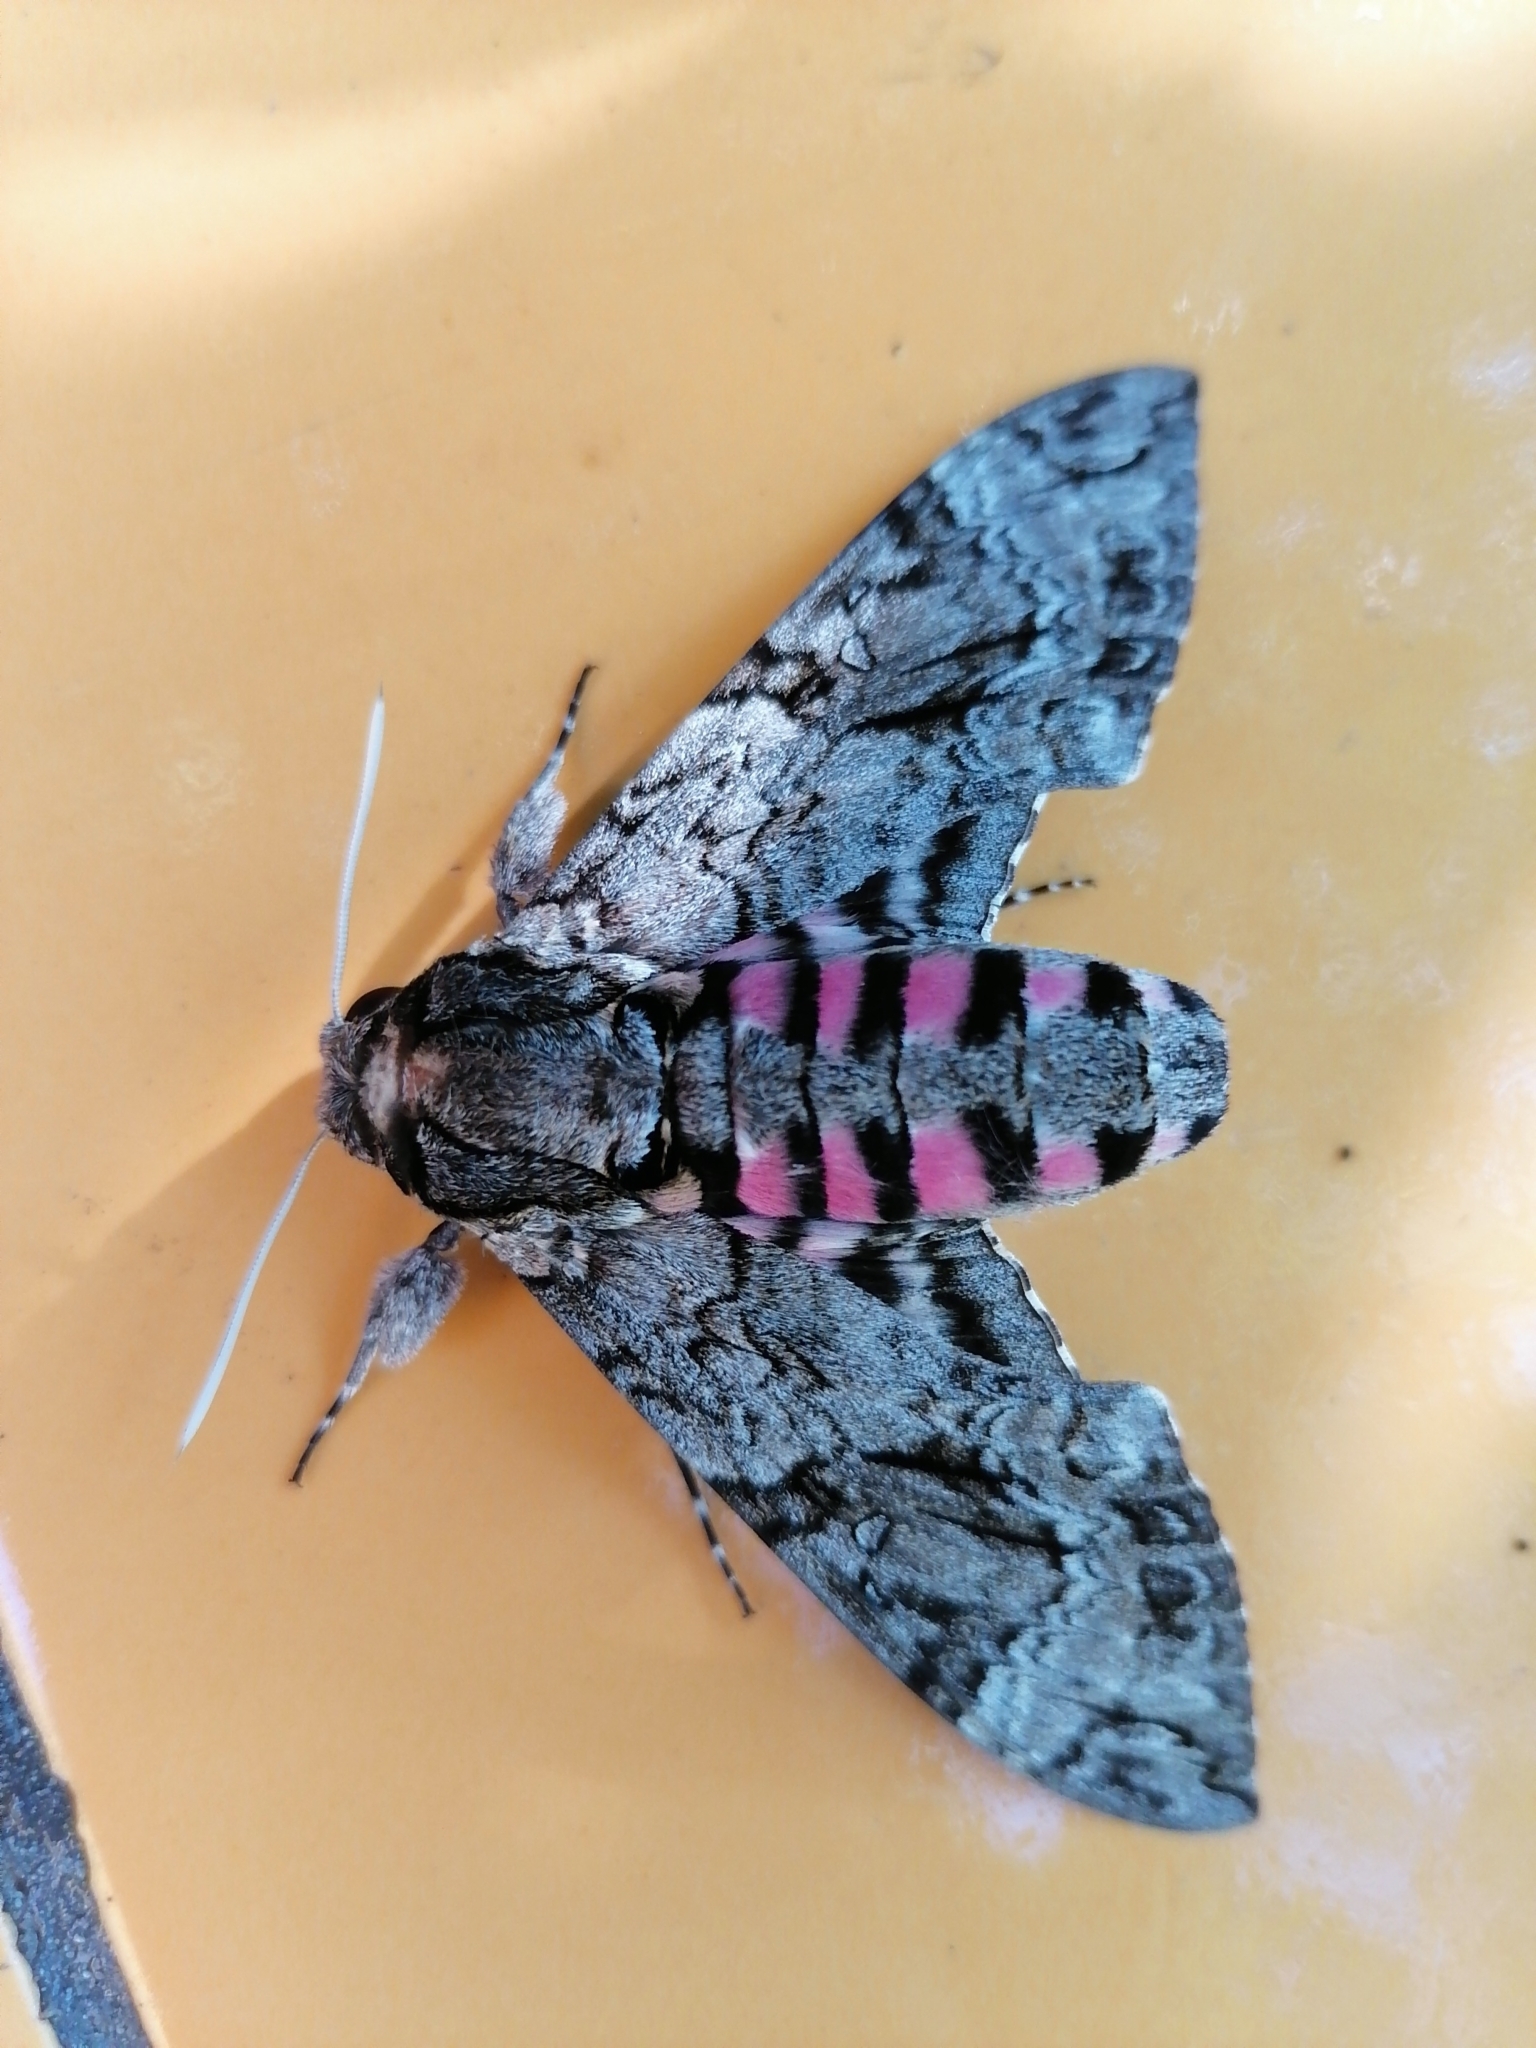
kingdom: Animalia
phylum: Arthropoda
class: Insecta
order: Lepidoptera
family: Sphingidae
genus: Agrius
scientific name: Agrius cingulata
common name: Pink-spotted hawkmoth
